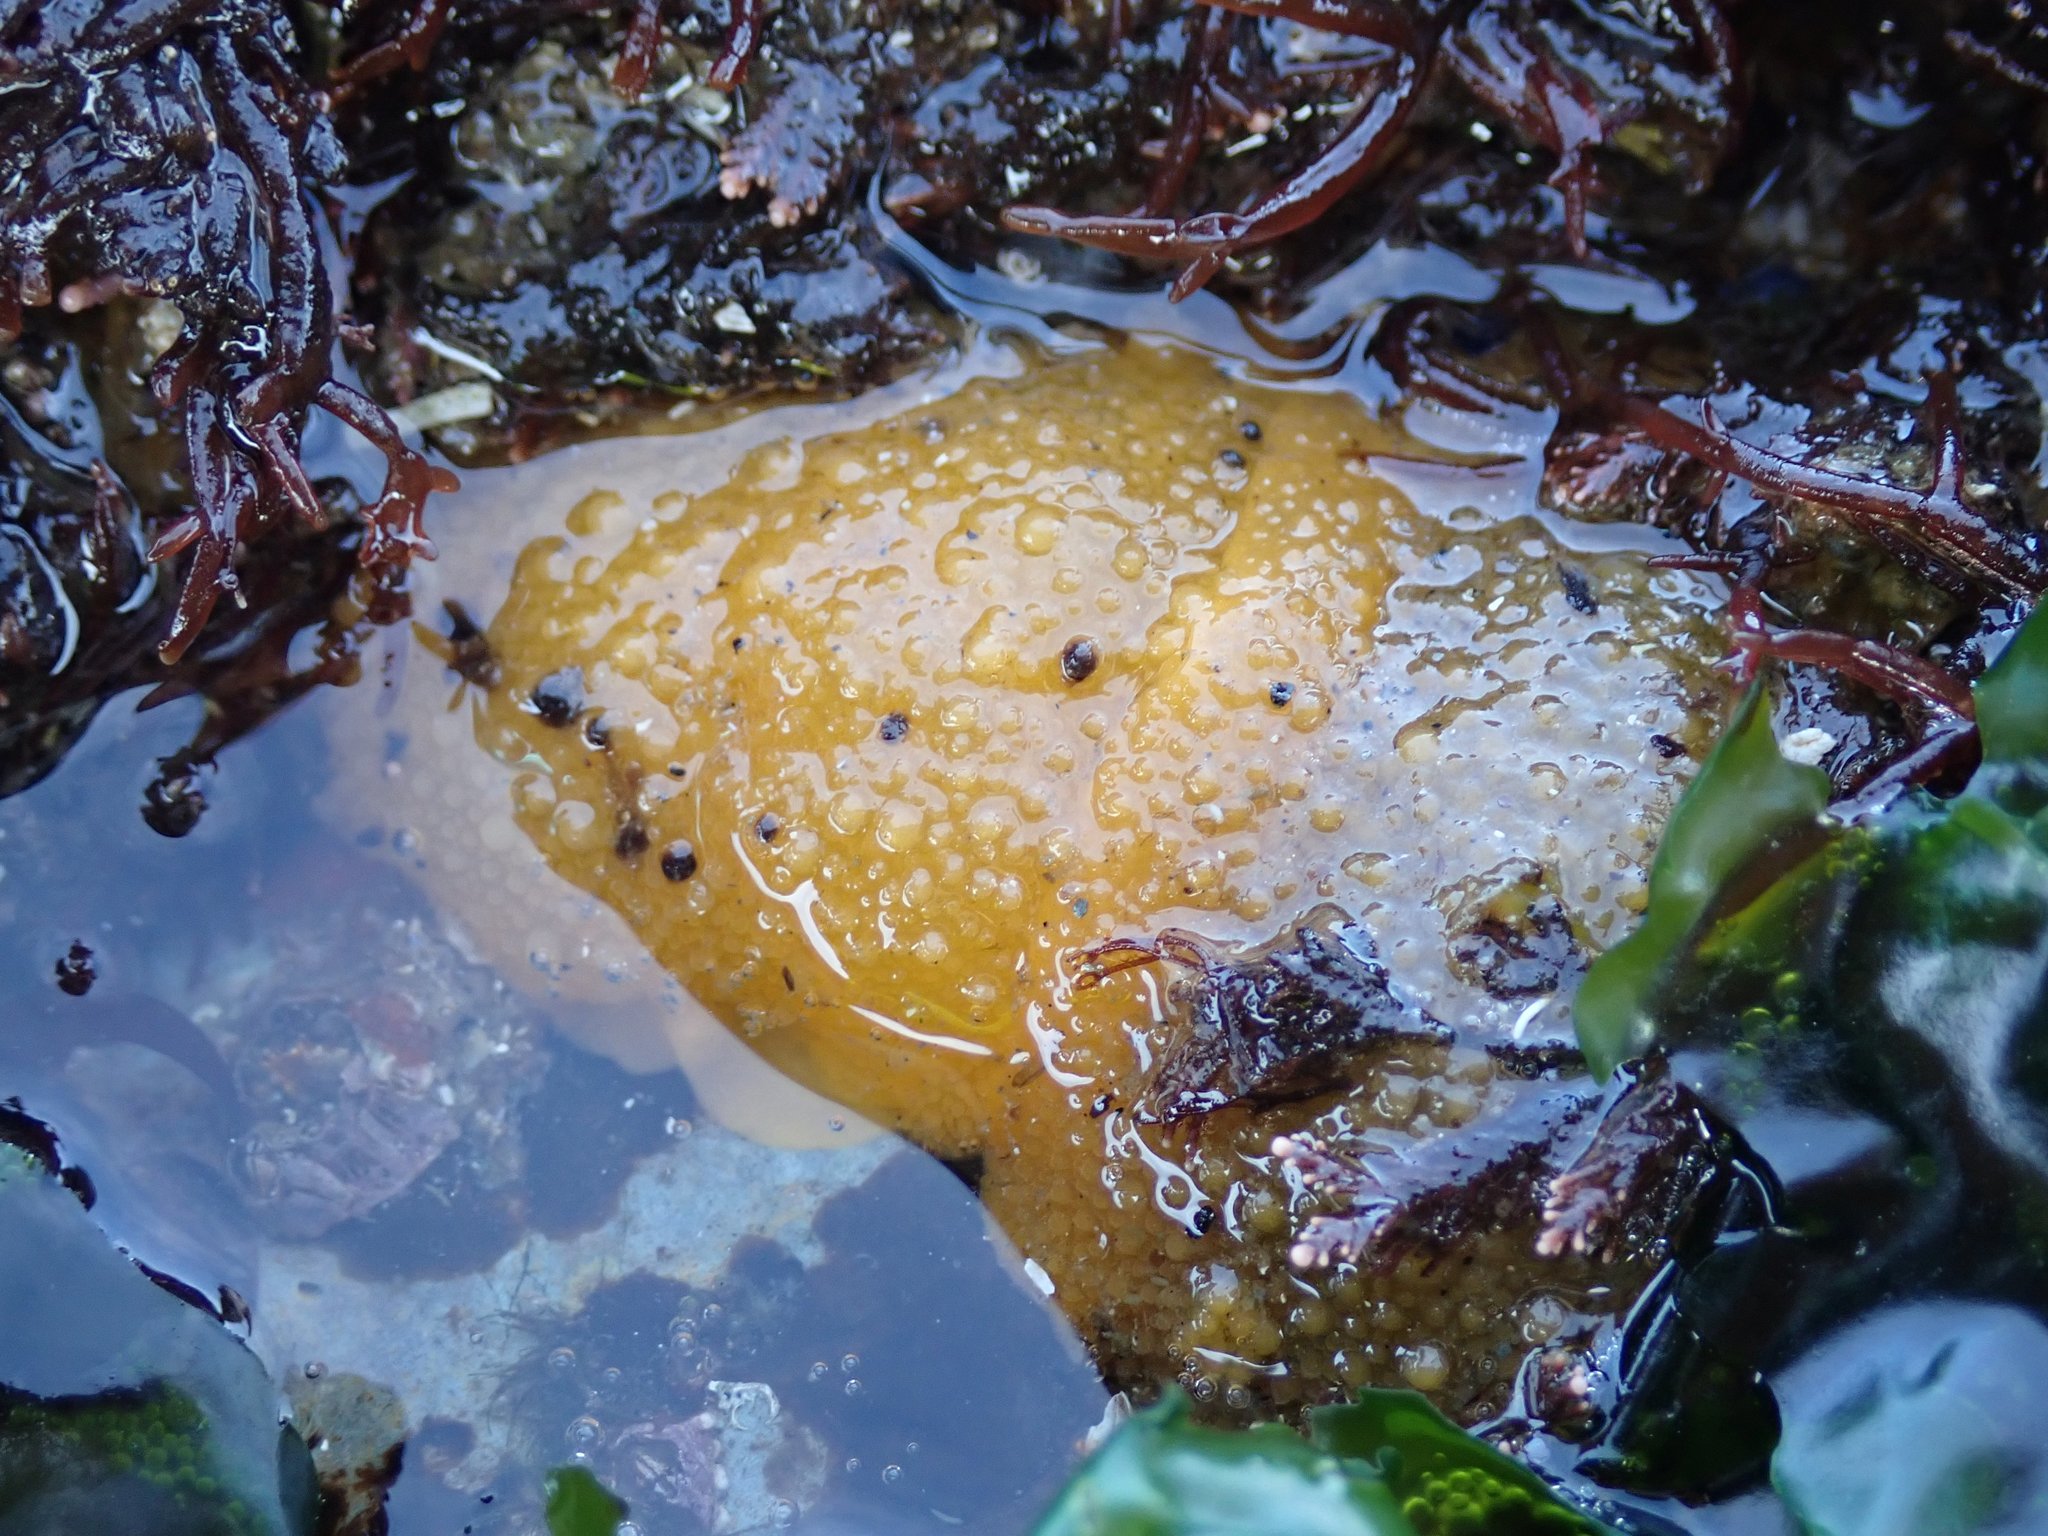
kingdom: Animalia
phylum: Mollusca
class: Gastropoda
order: Nudibranchia
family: Dorididae
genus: Doris
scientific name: Doris montereyensis
